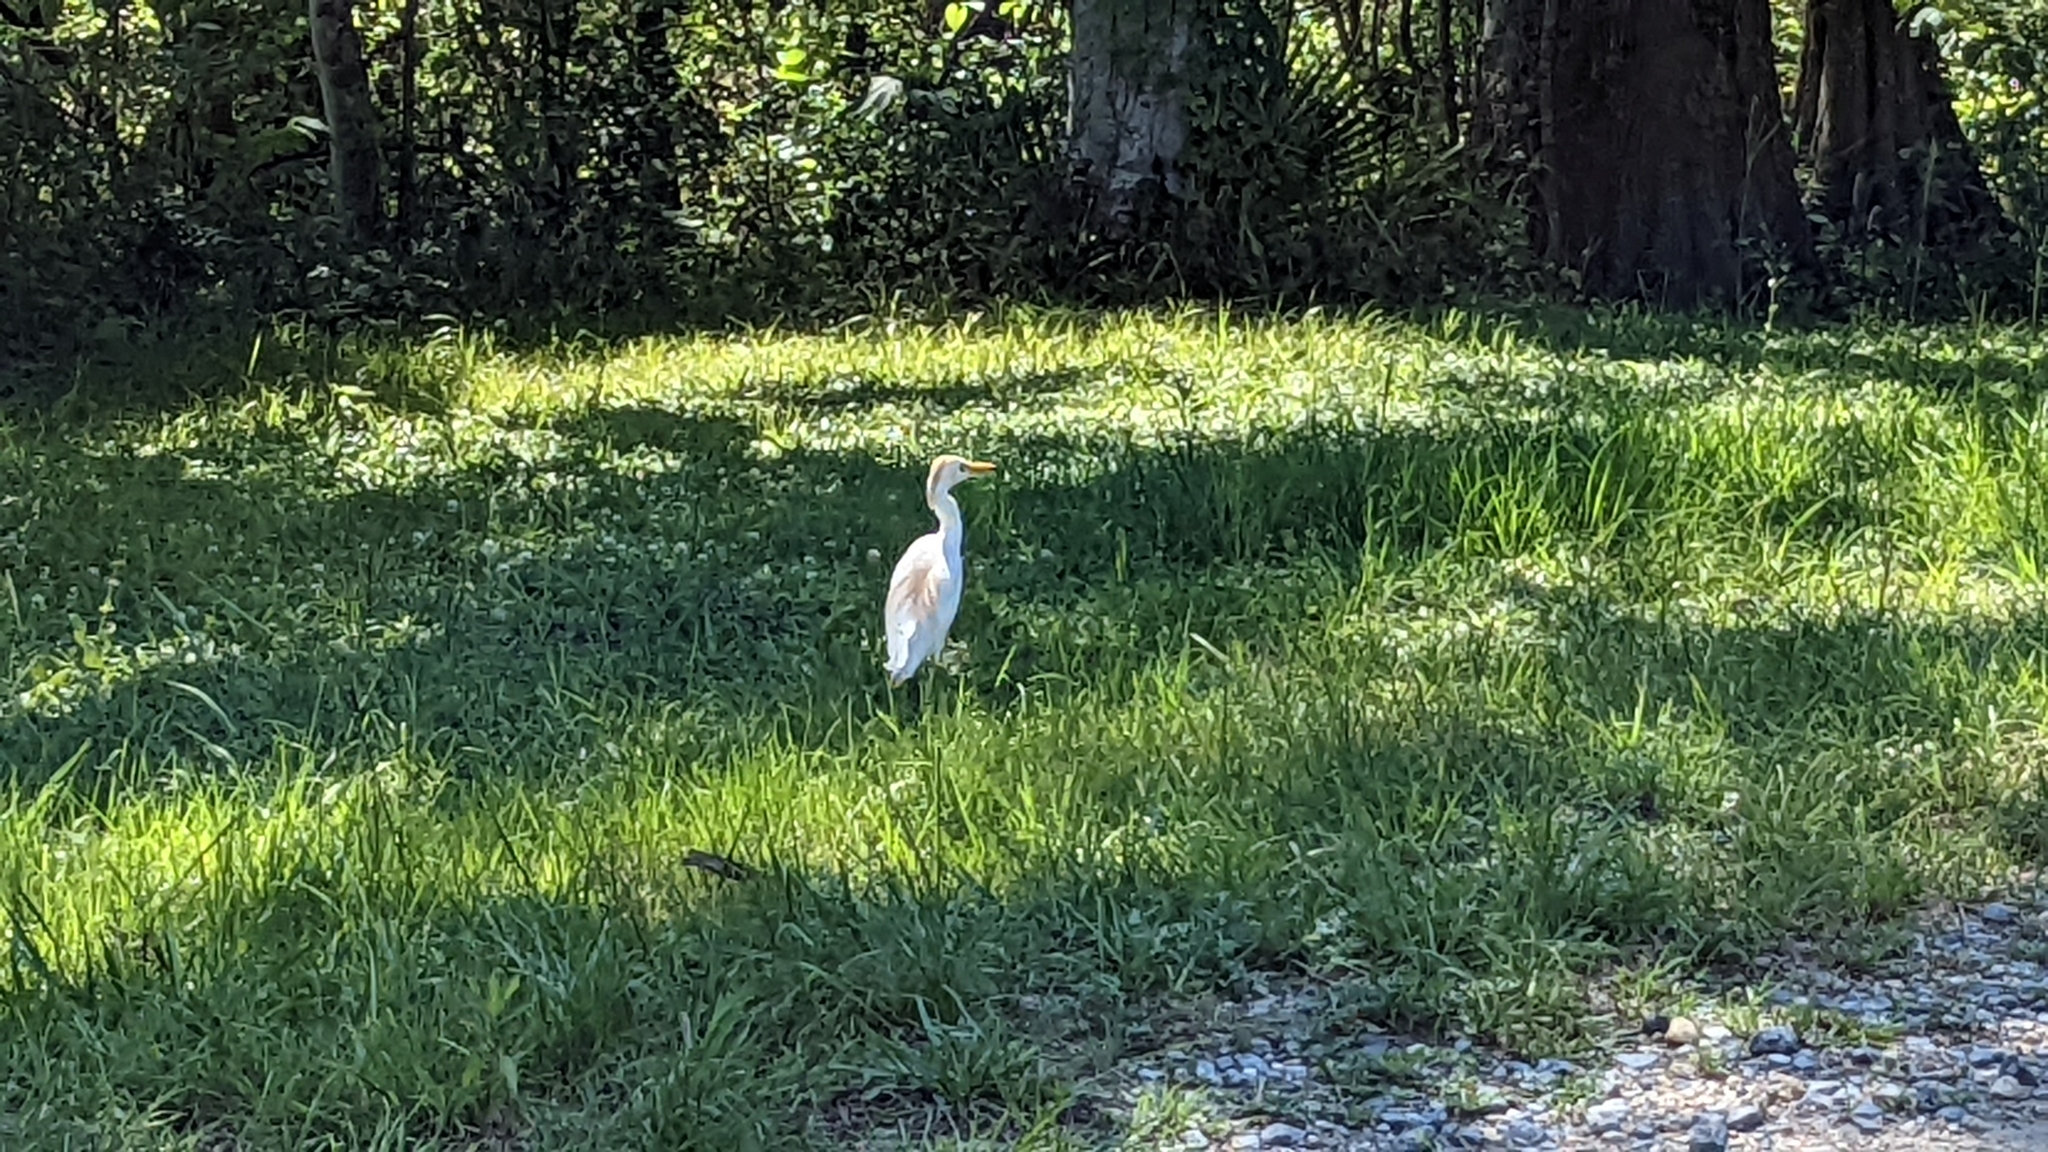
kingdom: Animalia
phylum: Chordata
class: Aves
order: Pelecaniformes
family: Ardeidae
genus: Bubulcus
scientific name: Bubulcus ibis
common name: Cattle egret
